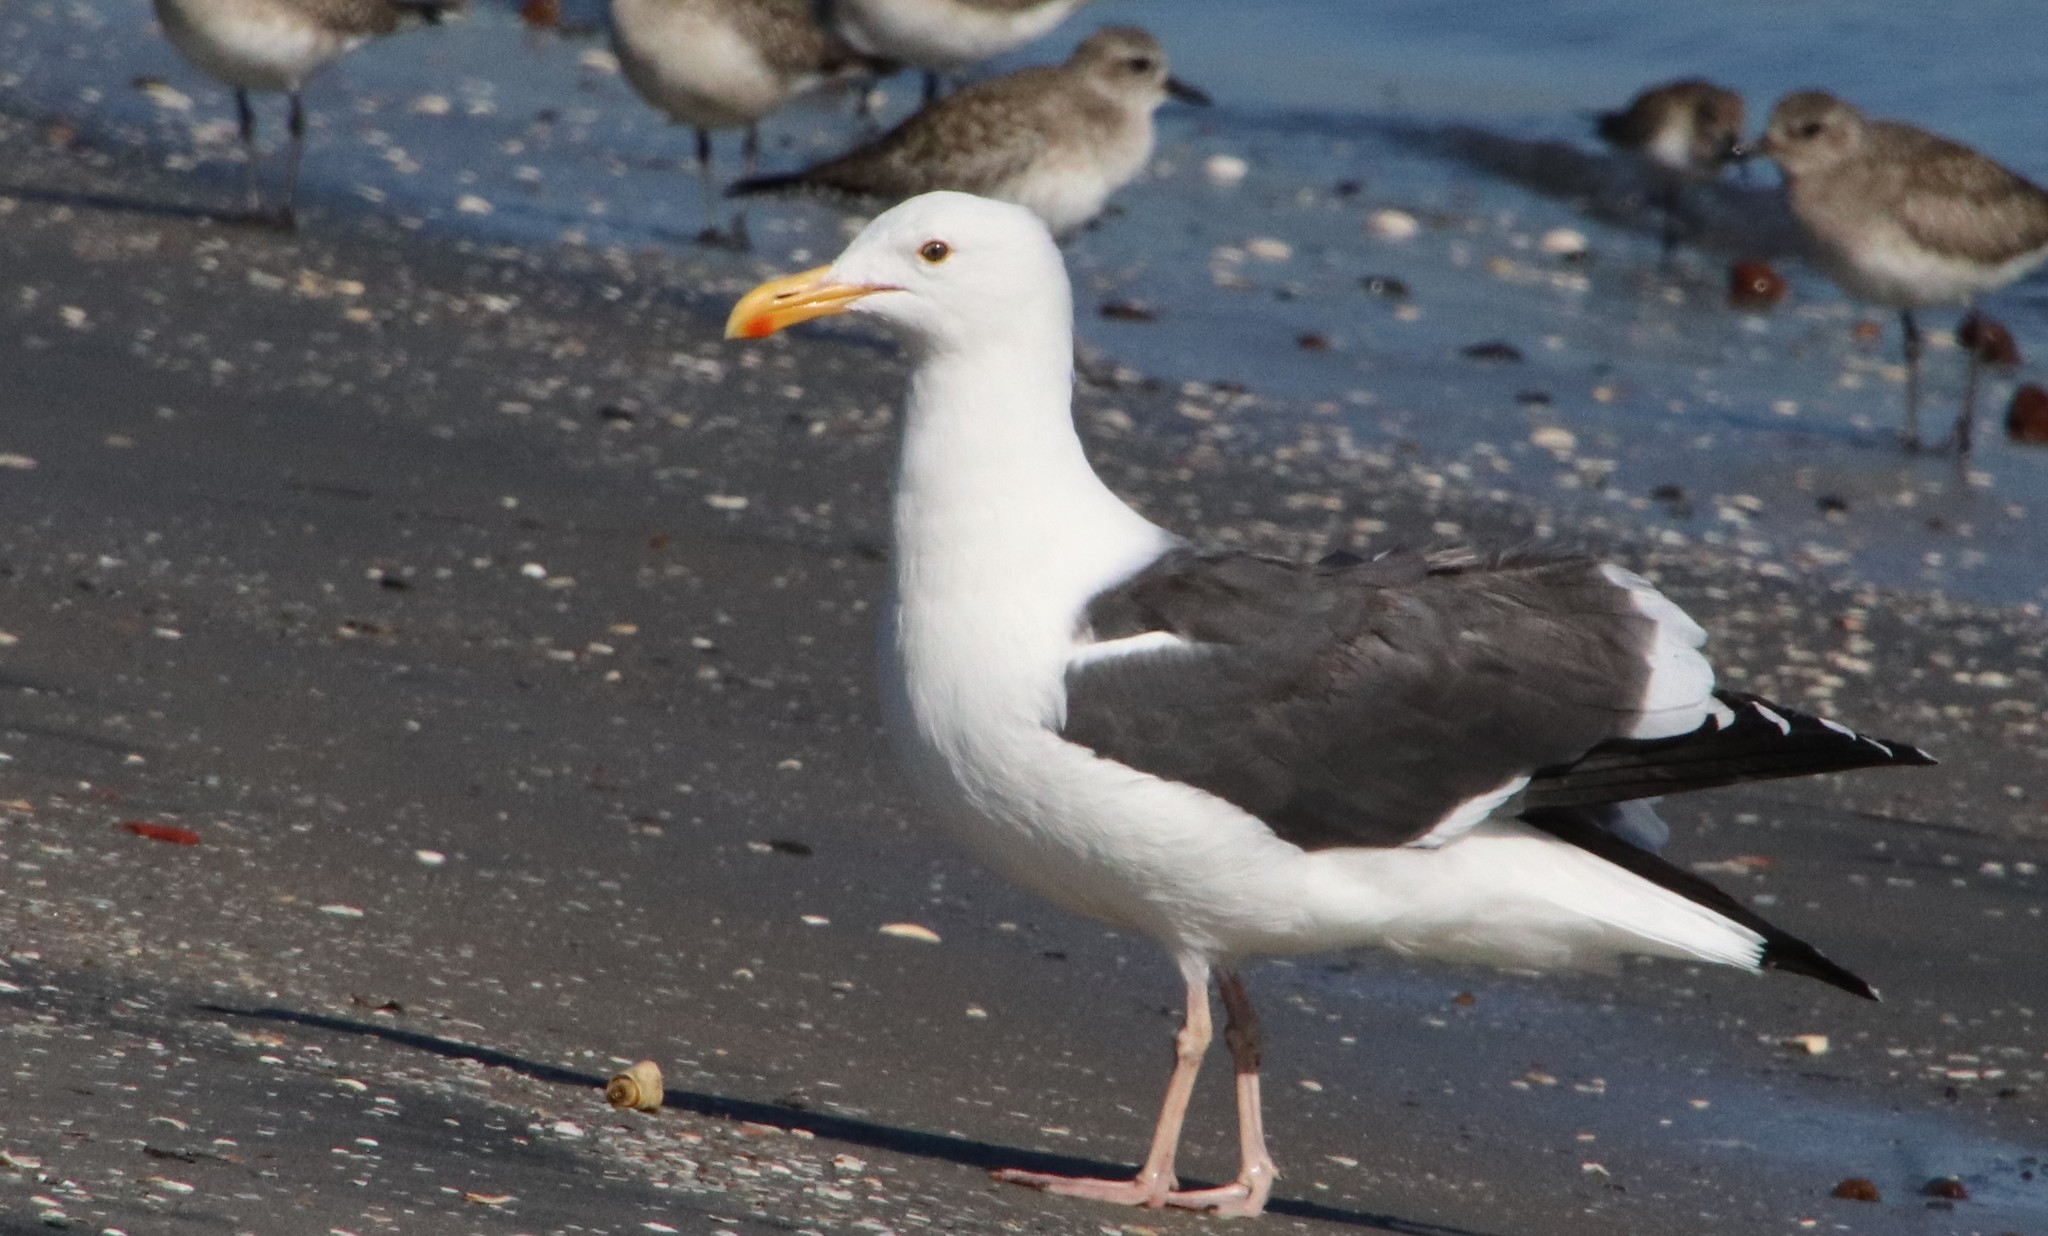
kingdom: Animalia
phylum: Chordata
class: Aves
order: Charadriiformes
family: Laridae
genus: Larus
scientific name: Larus occidentalis
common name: Western gull
